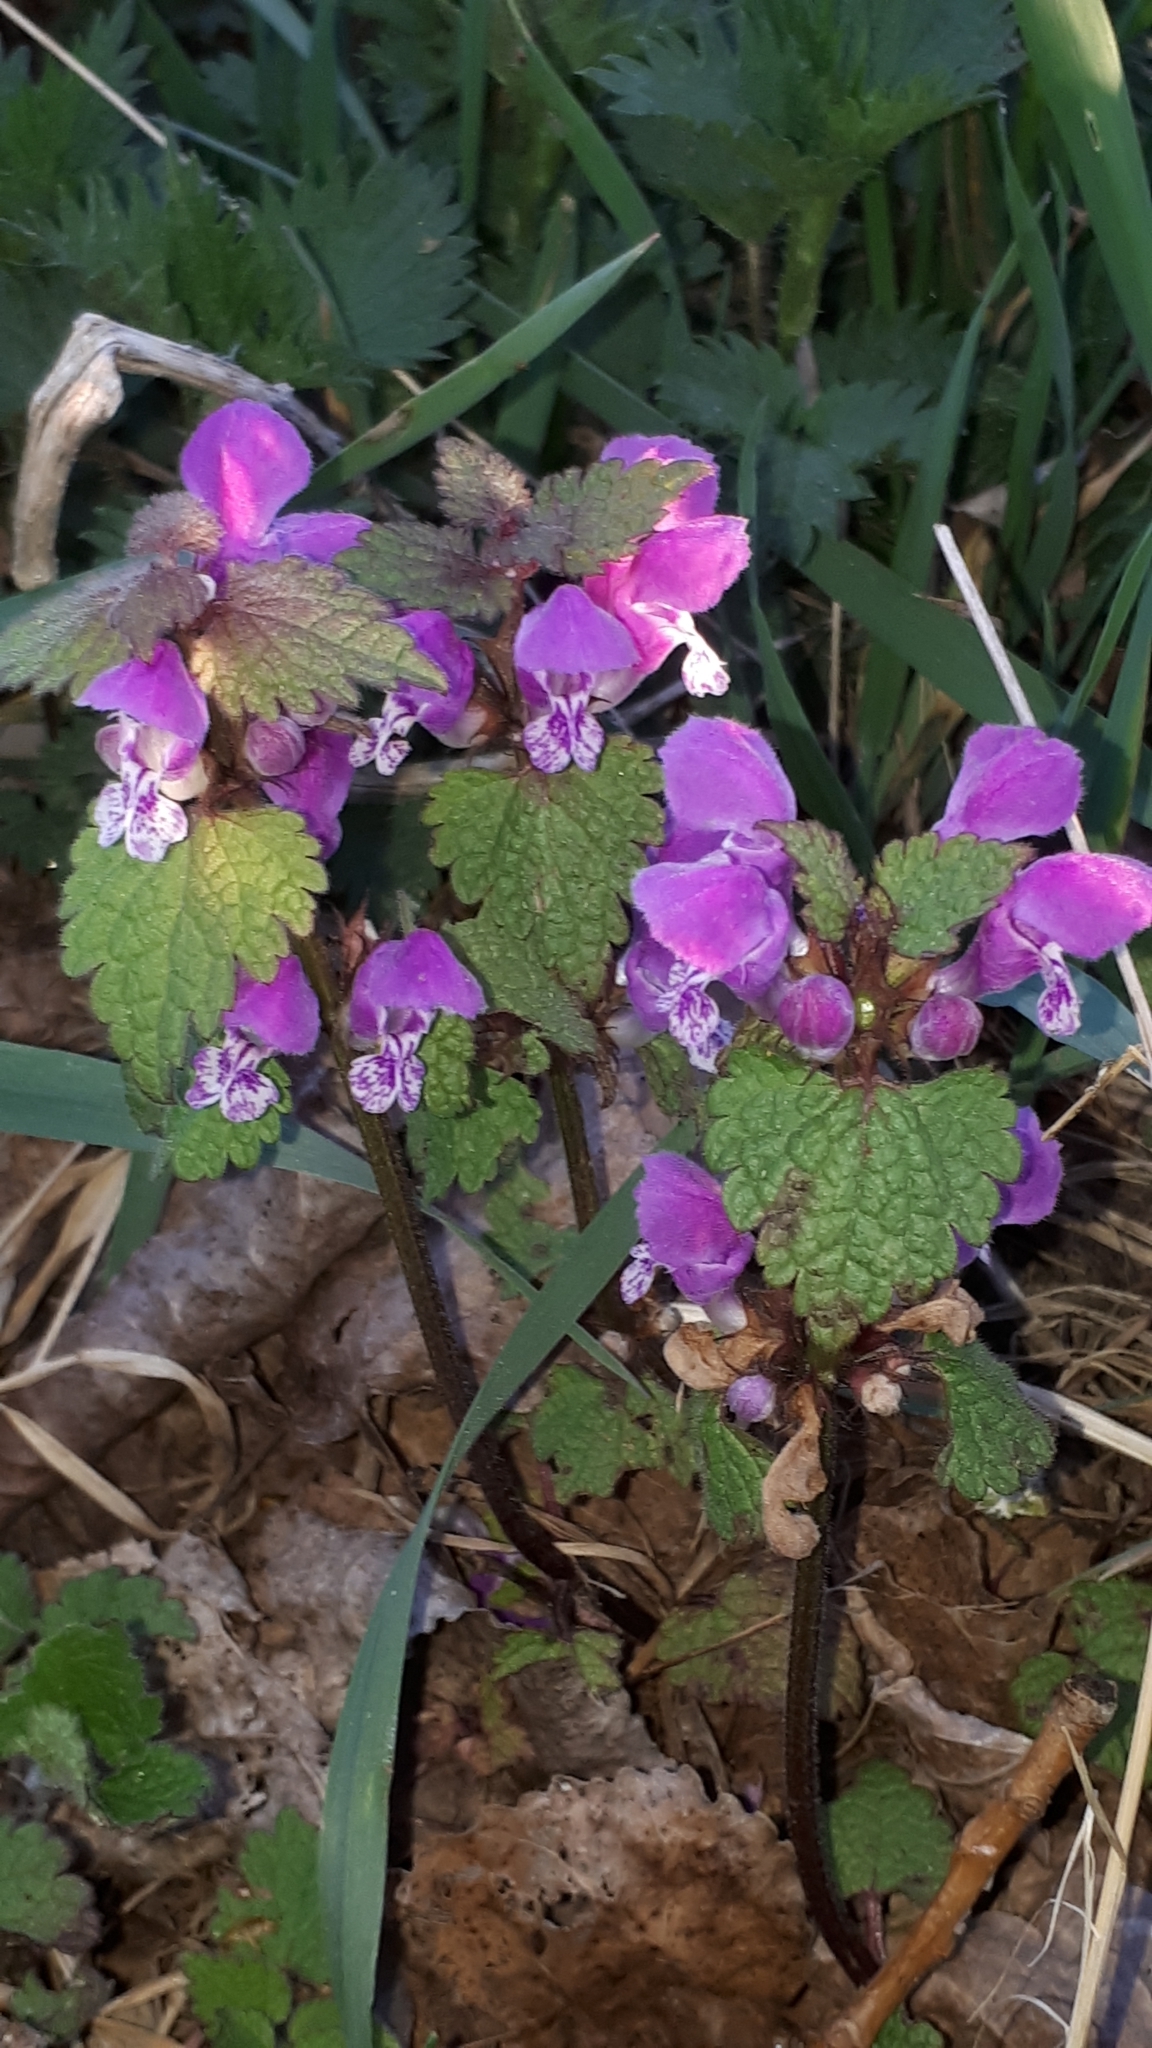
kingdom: Plantae
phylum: Tracheophyta
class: Magnoliopsida
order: Lamiales
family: Lamiaceae
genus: Lamium
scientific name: Lamium maculatum
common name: Spotted dead-nettle
